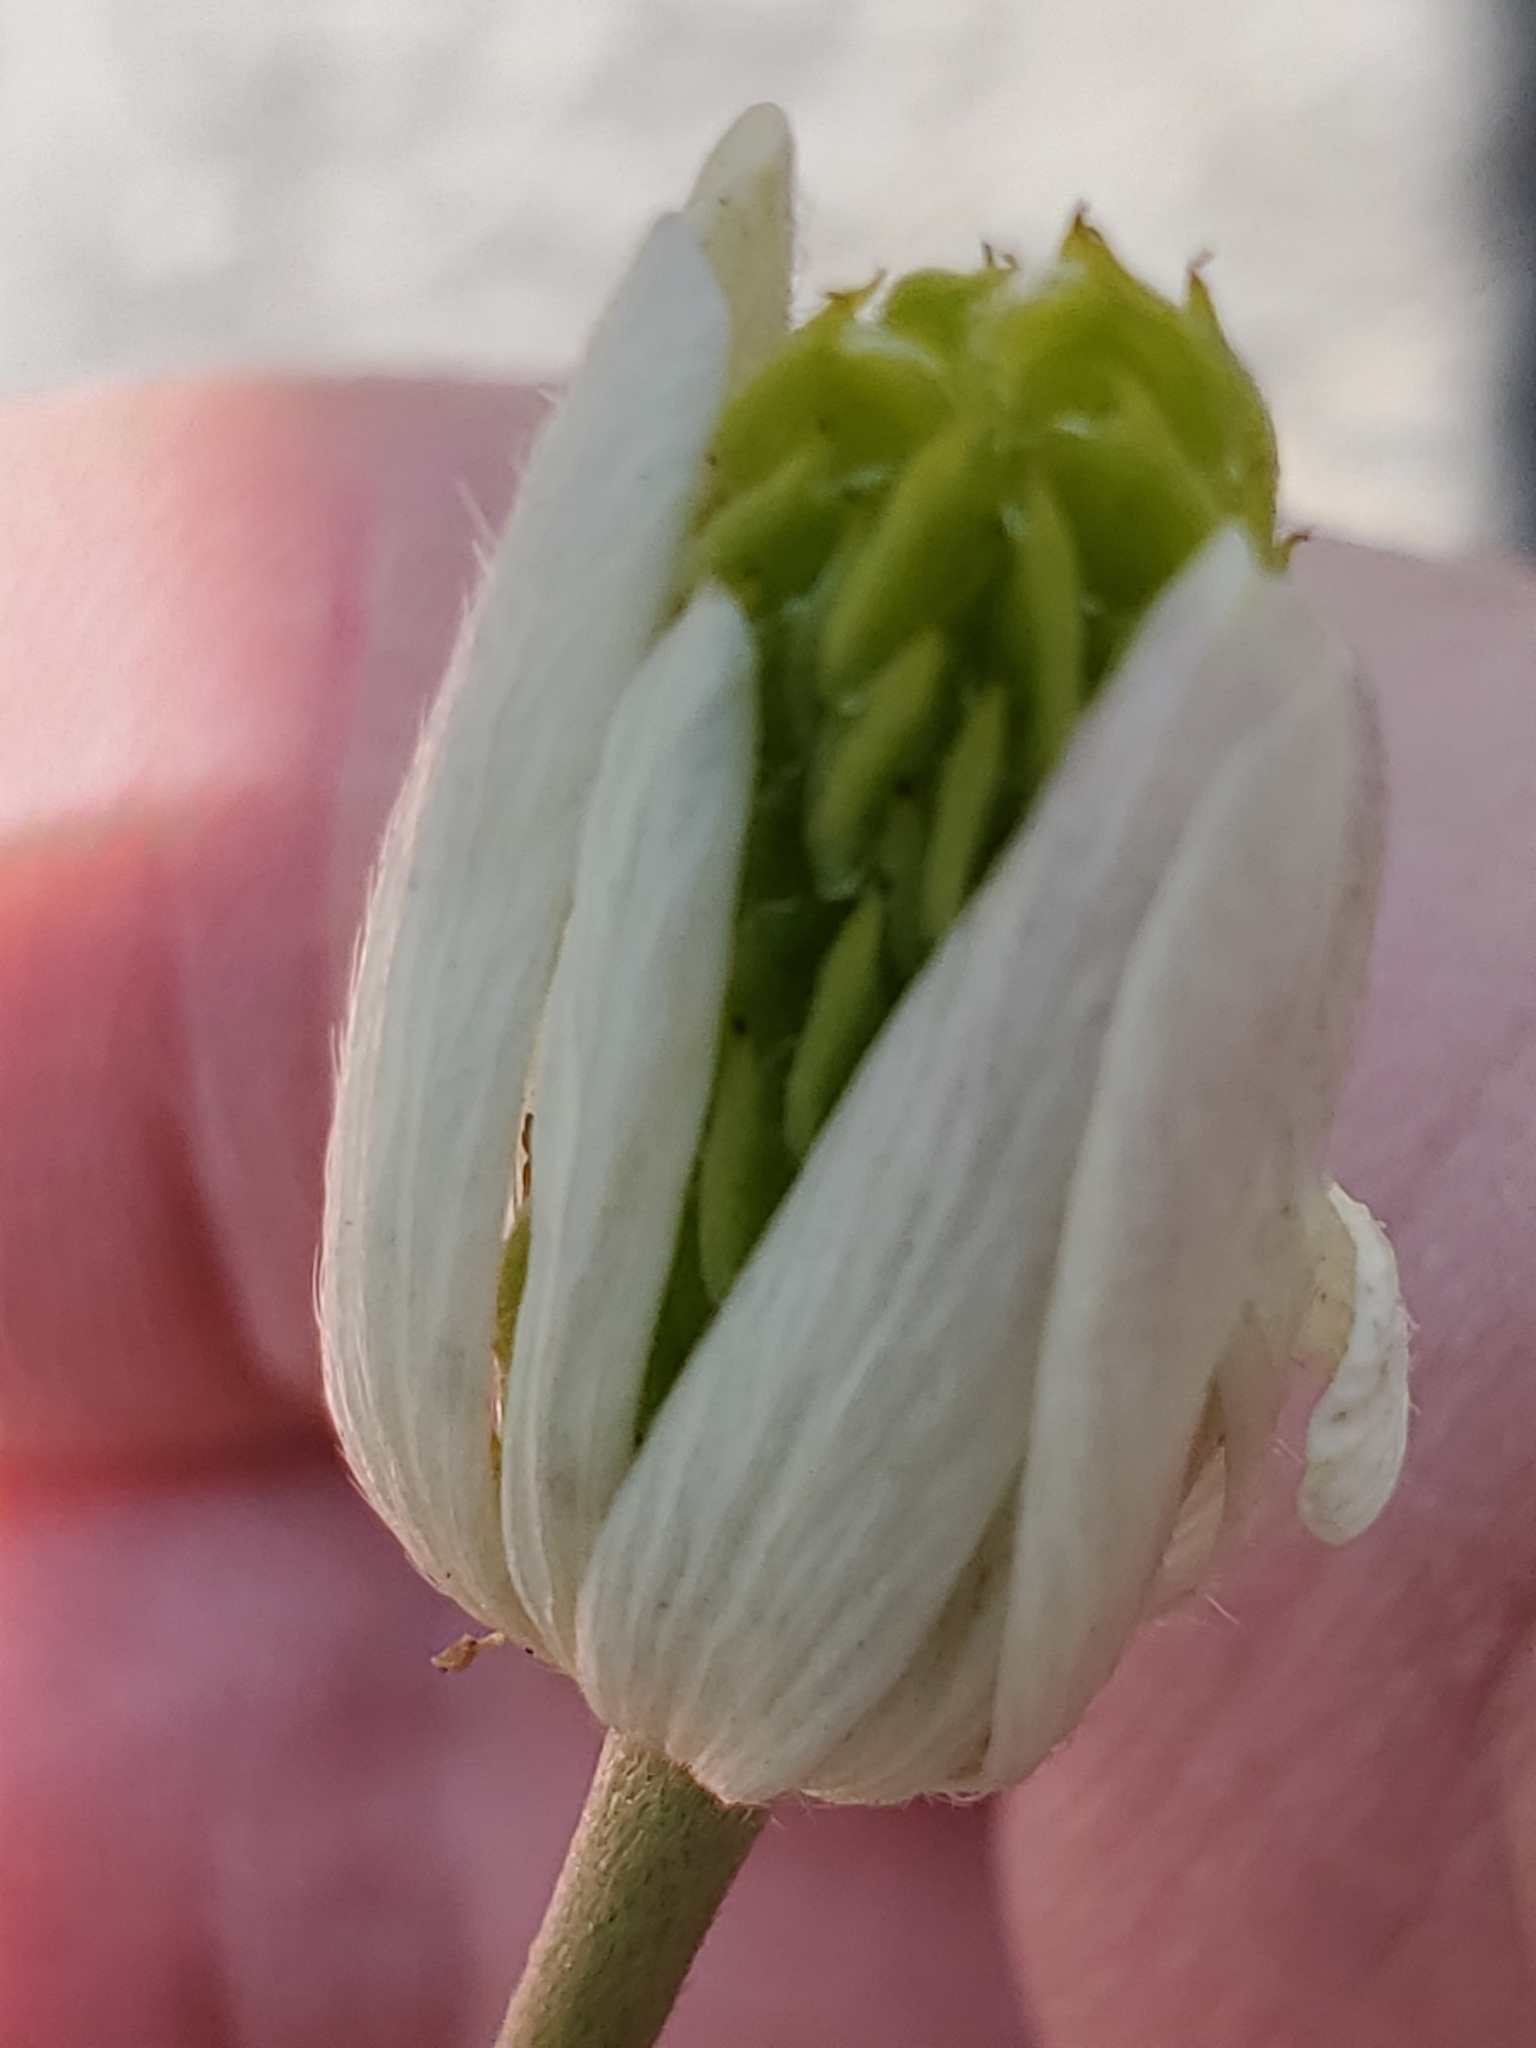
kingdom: Plantae
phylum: Tracheophyta
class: Magnoliopsida
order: Ranunculales
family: Ranunculaceae
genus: Anemone
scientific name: Anemone edwardsiana
